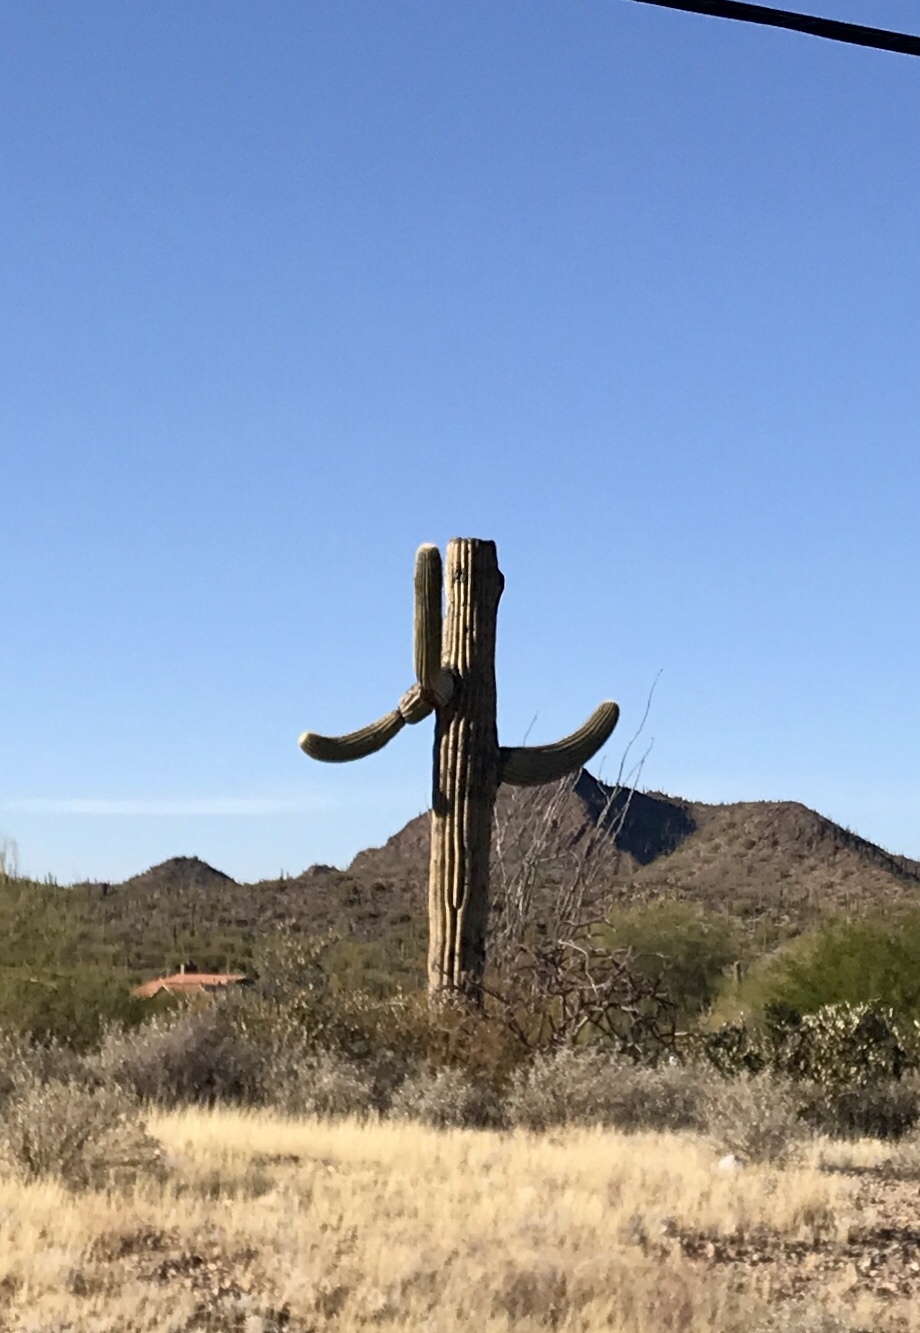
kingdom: Plantae
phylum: Tracheophyta
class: Magnoliopsida
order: Caryophyllales
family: Cactaceae
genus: Carnegiea
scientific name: Carnegiea gigantea
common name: Saguaro
